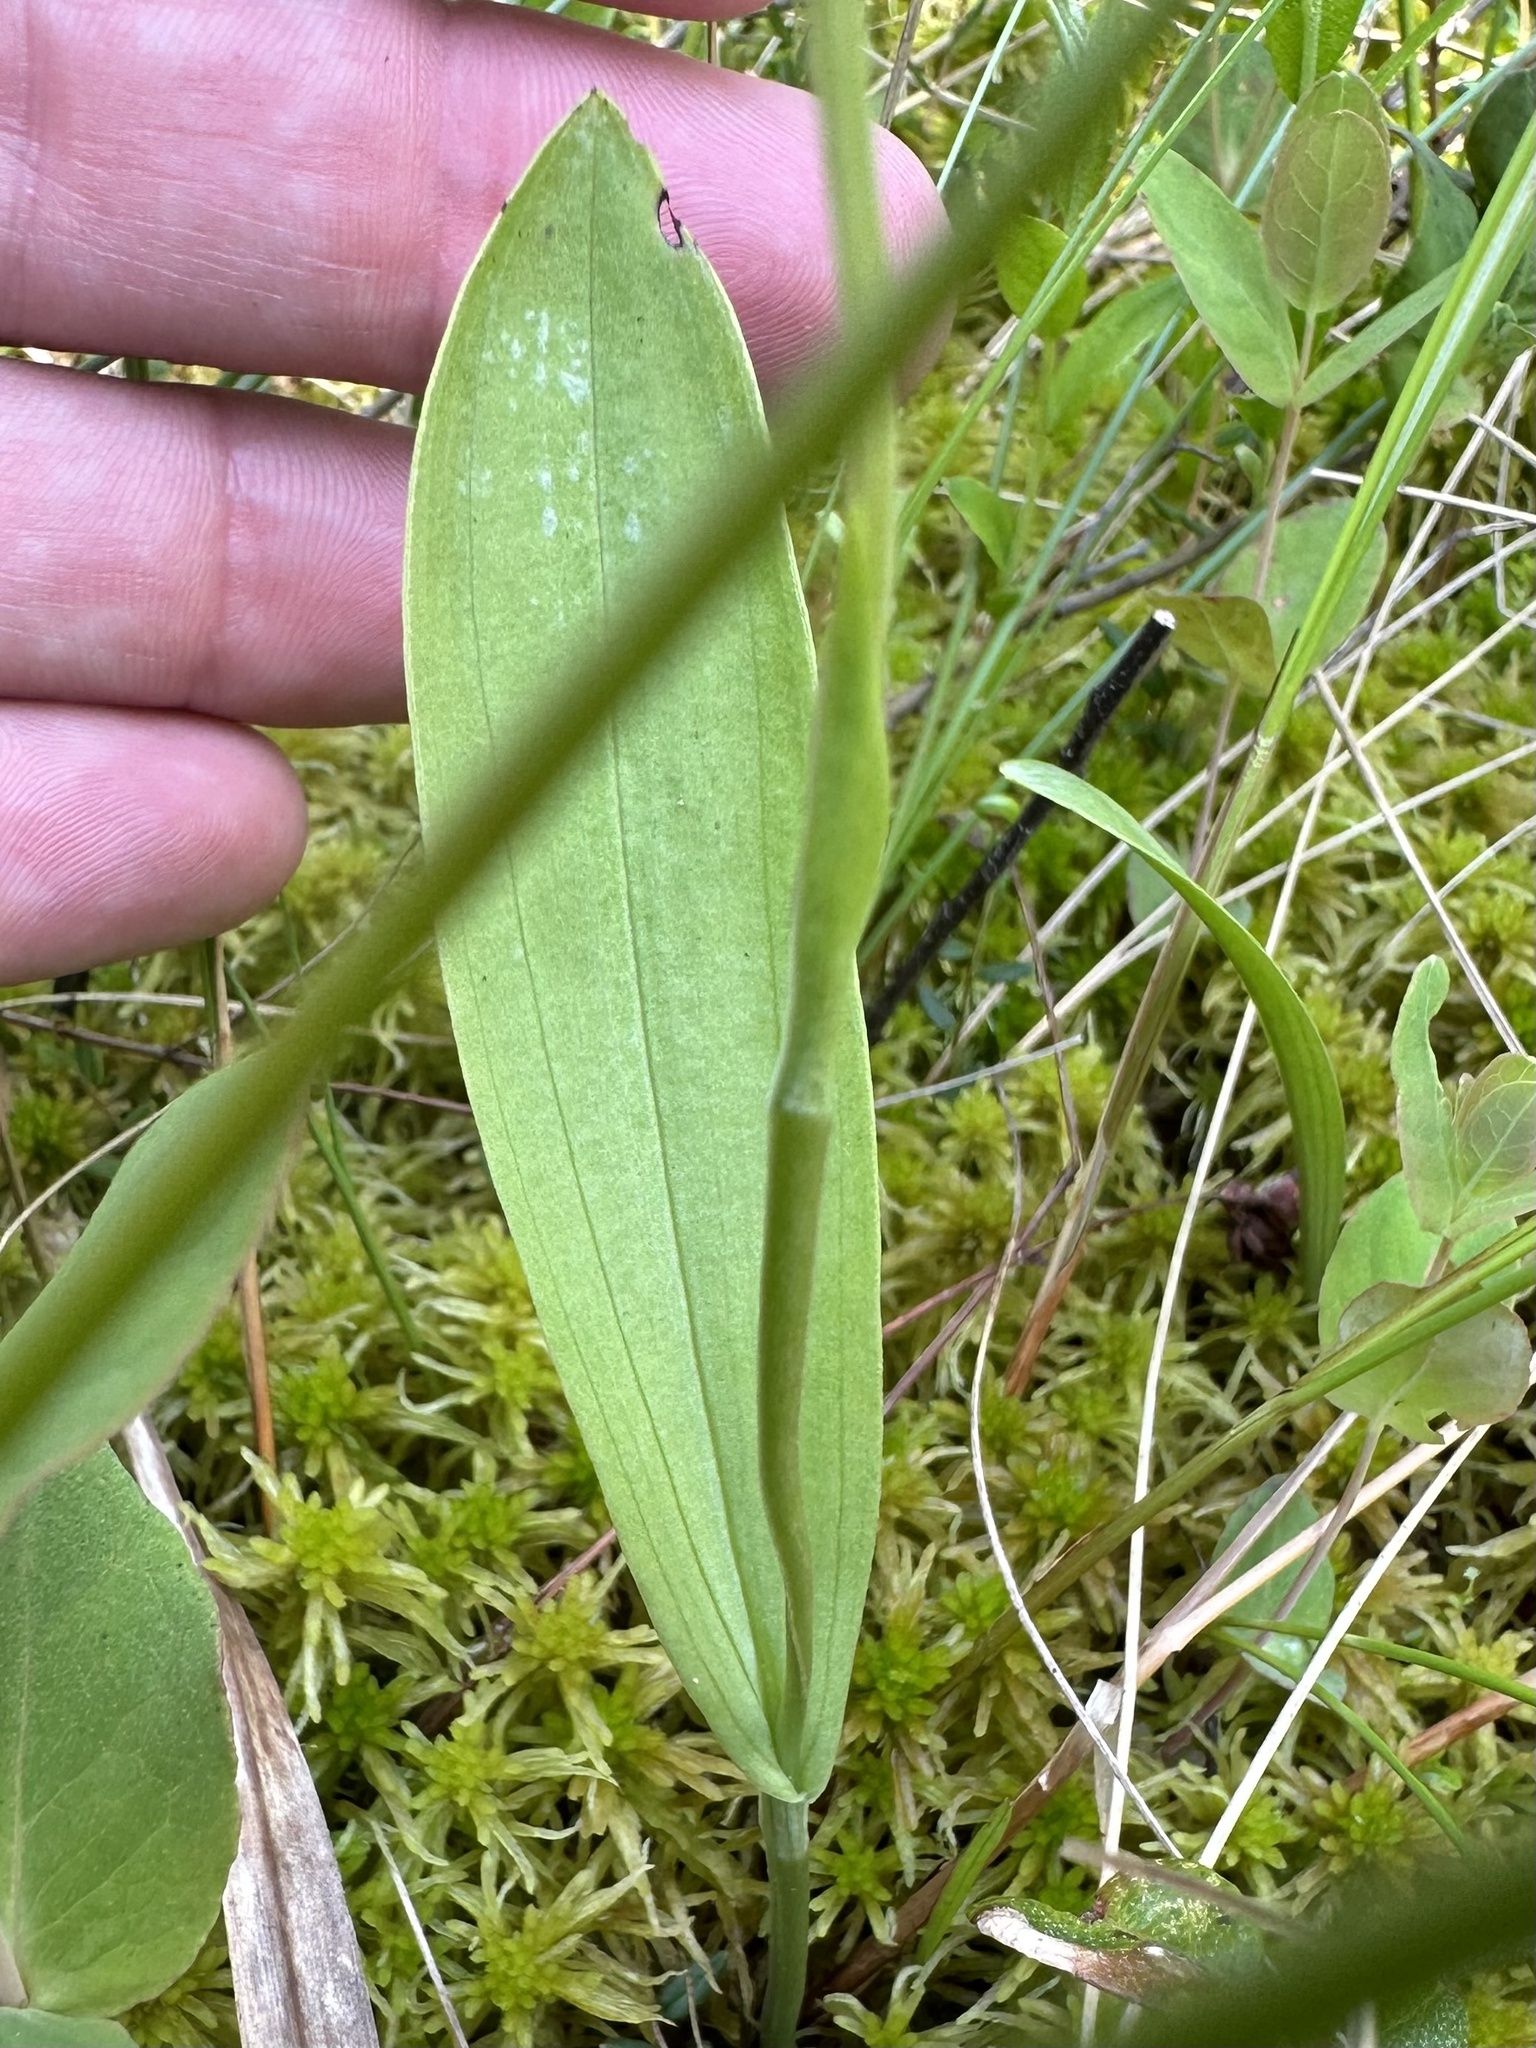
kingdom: Plantae
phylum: Tracheophyta
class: Liliopsida
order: Asparagales
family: Orchidaceae
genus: Platanthera
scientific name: Platanthera clavellata
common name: Club-spur orchid
